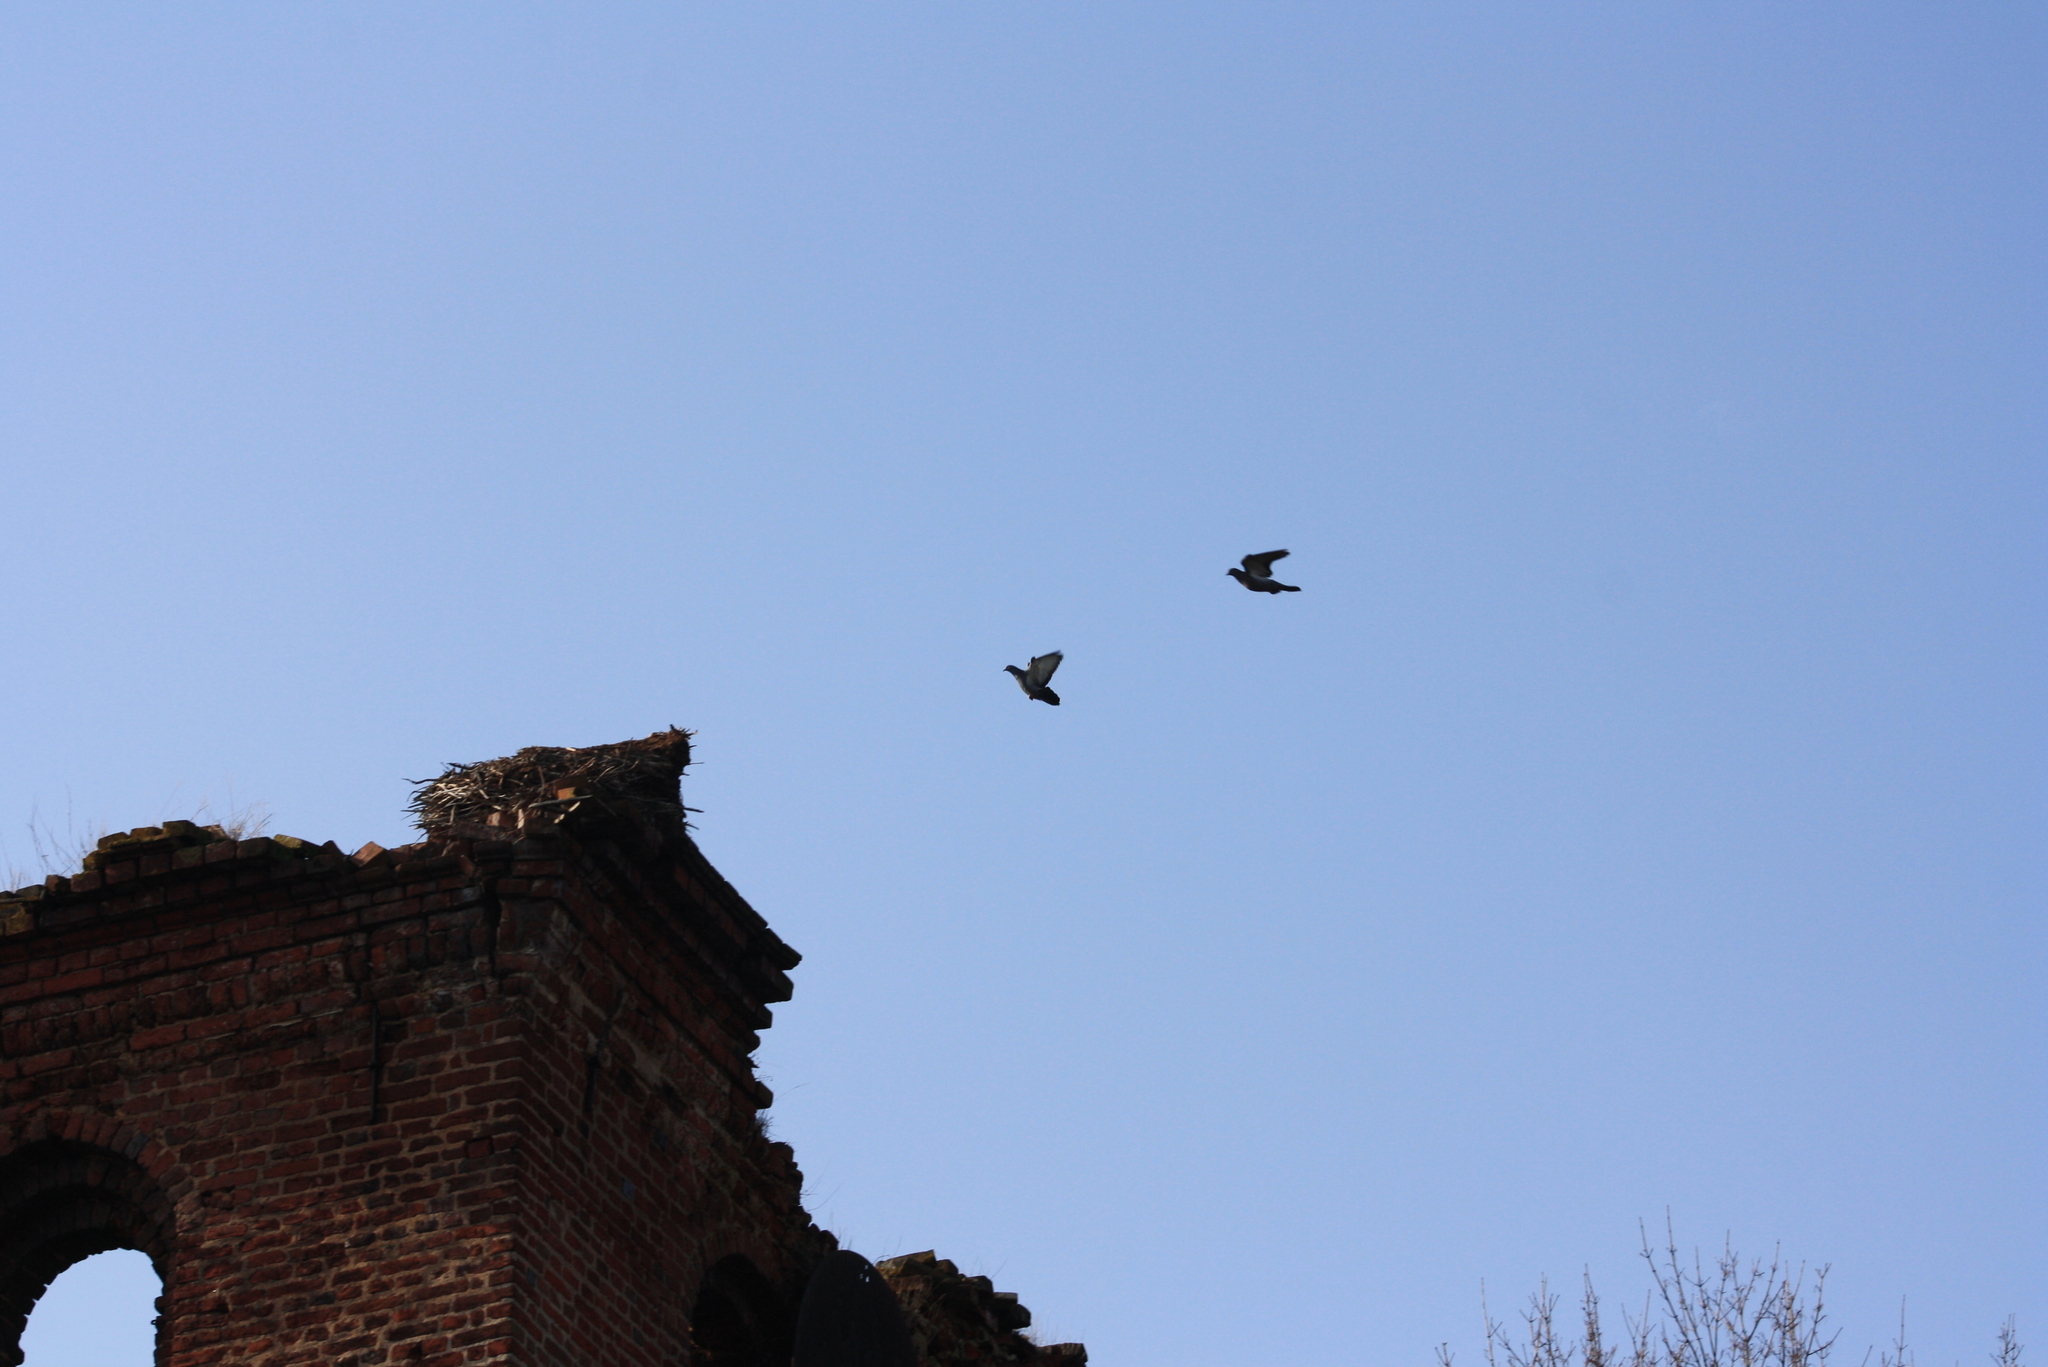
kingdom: Animalia
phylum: Chordata
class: Aves
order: Columbiformes
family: Columbidae
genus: Columba
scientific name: Columba livia
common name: Rock pigeon
